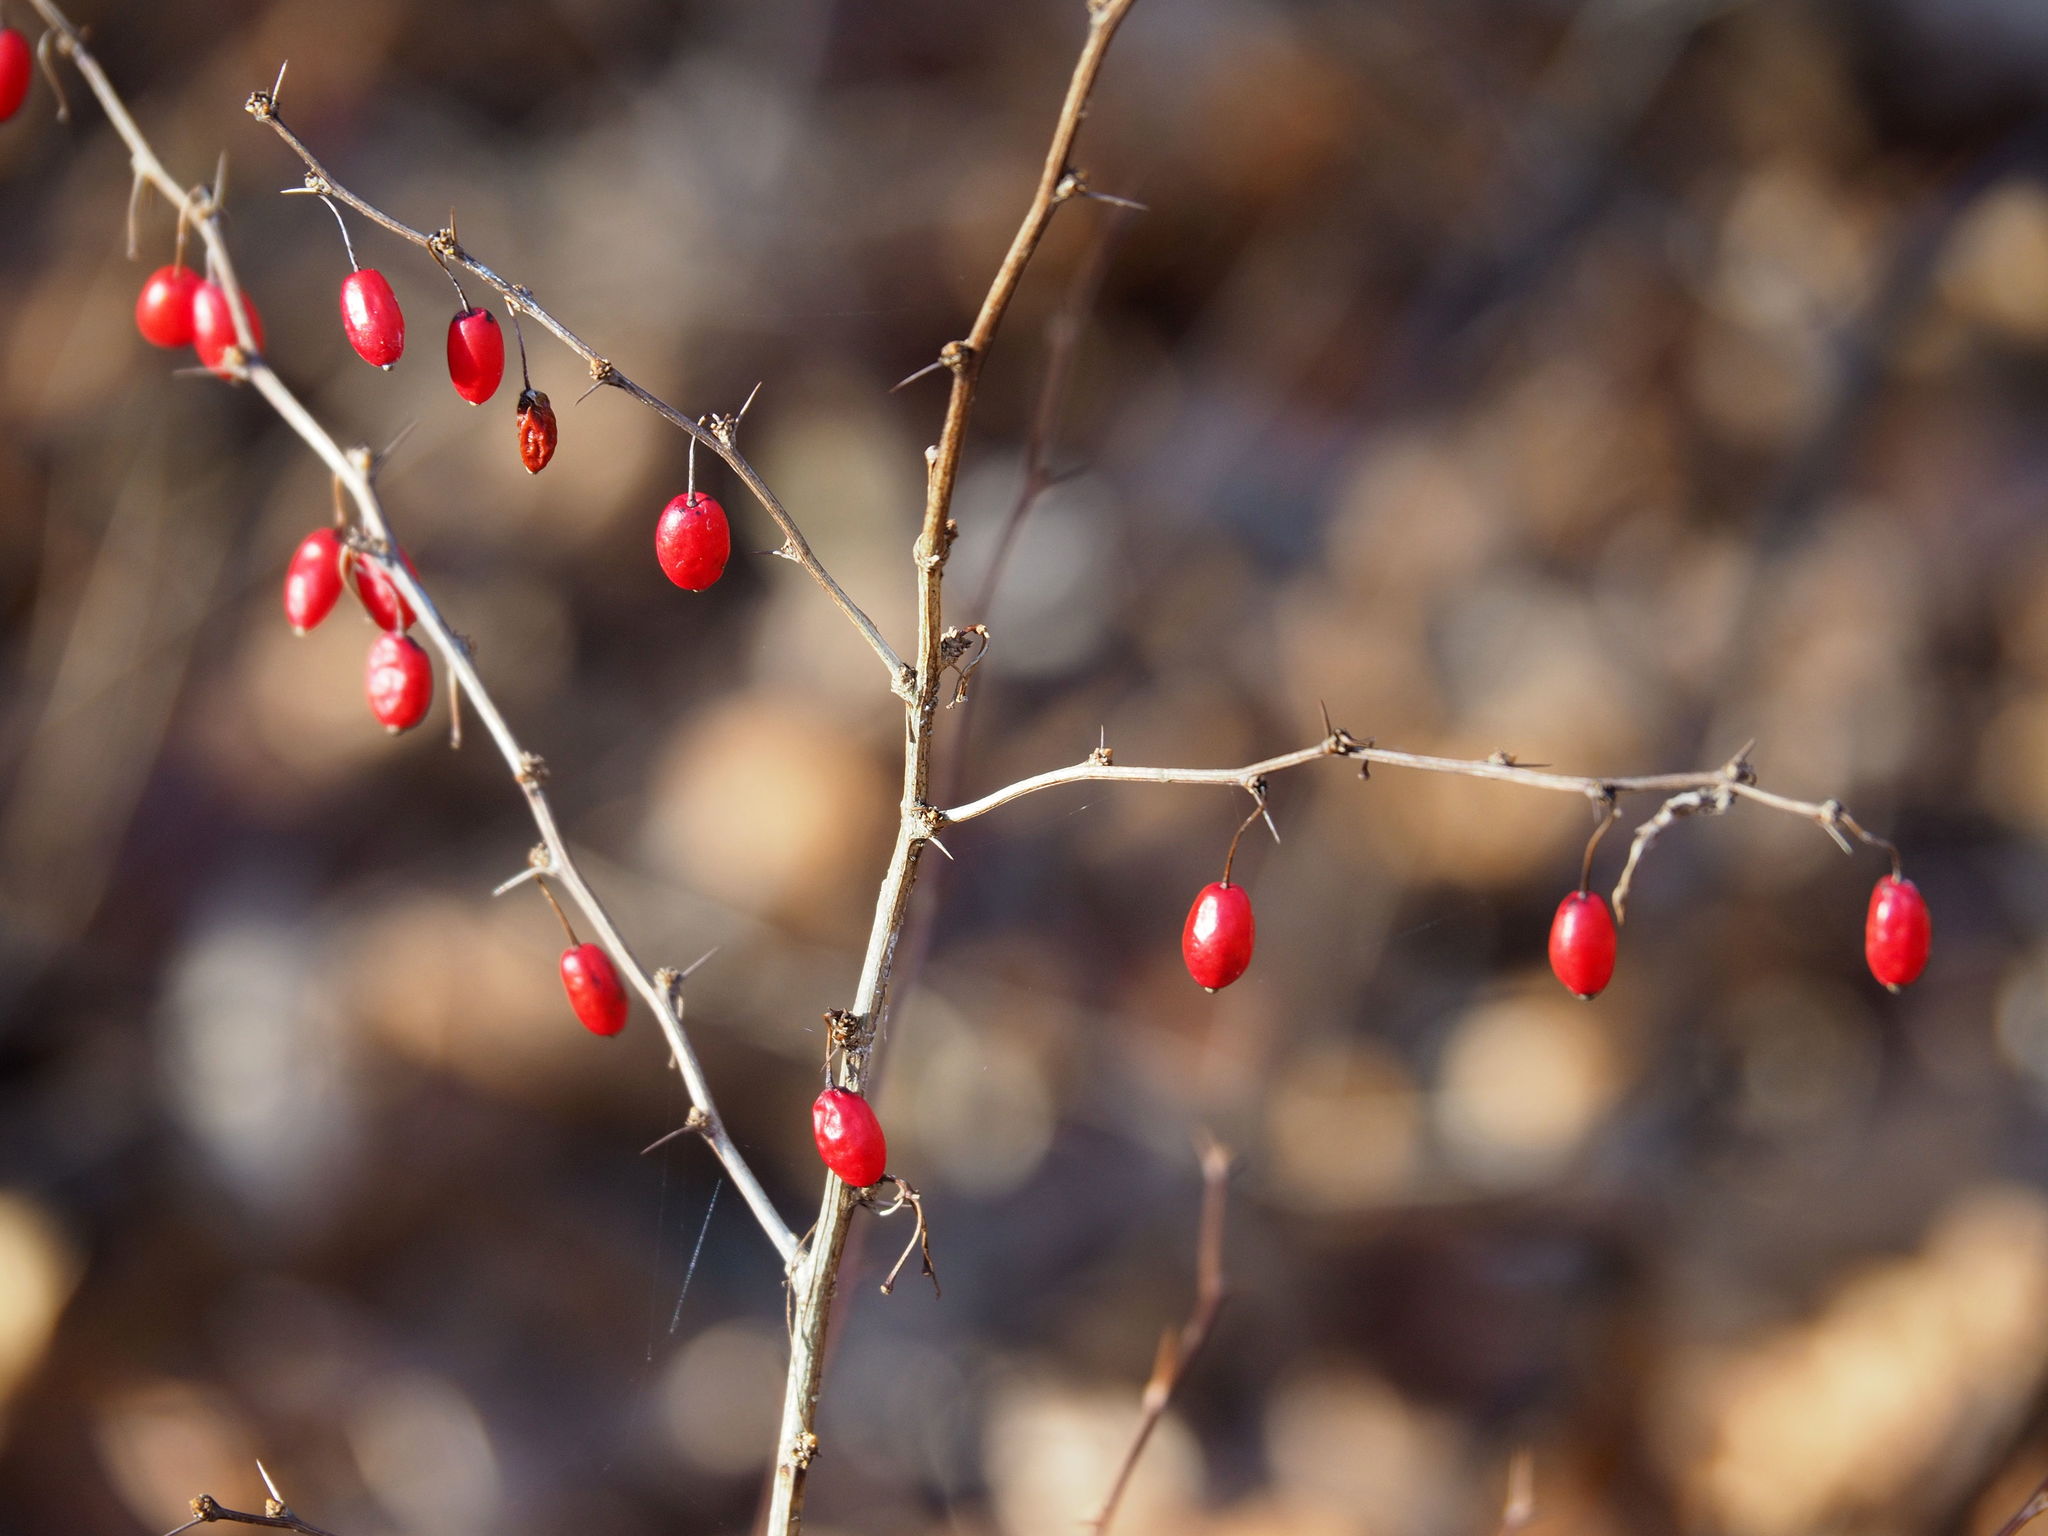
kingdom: Plantae
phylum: Tracheophyta
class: Magnoliopsida
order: Ranunculales
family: Berberidaceae
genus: Berberis
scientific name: Berberis thunbergii
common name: Japanese barberry
